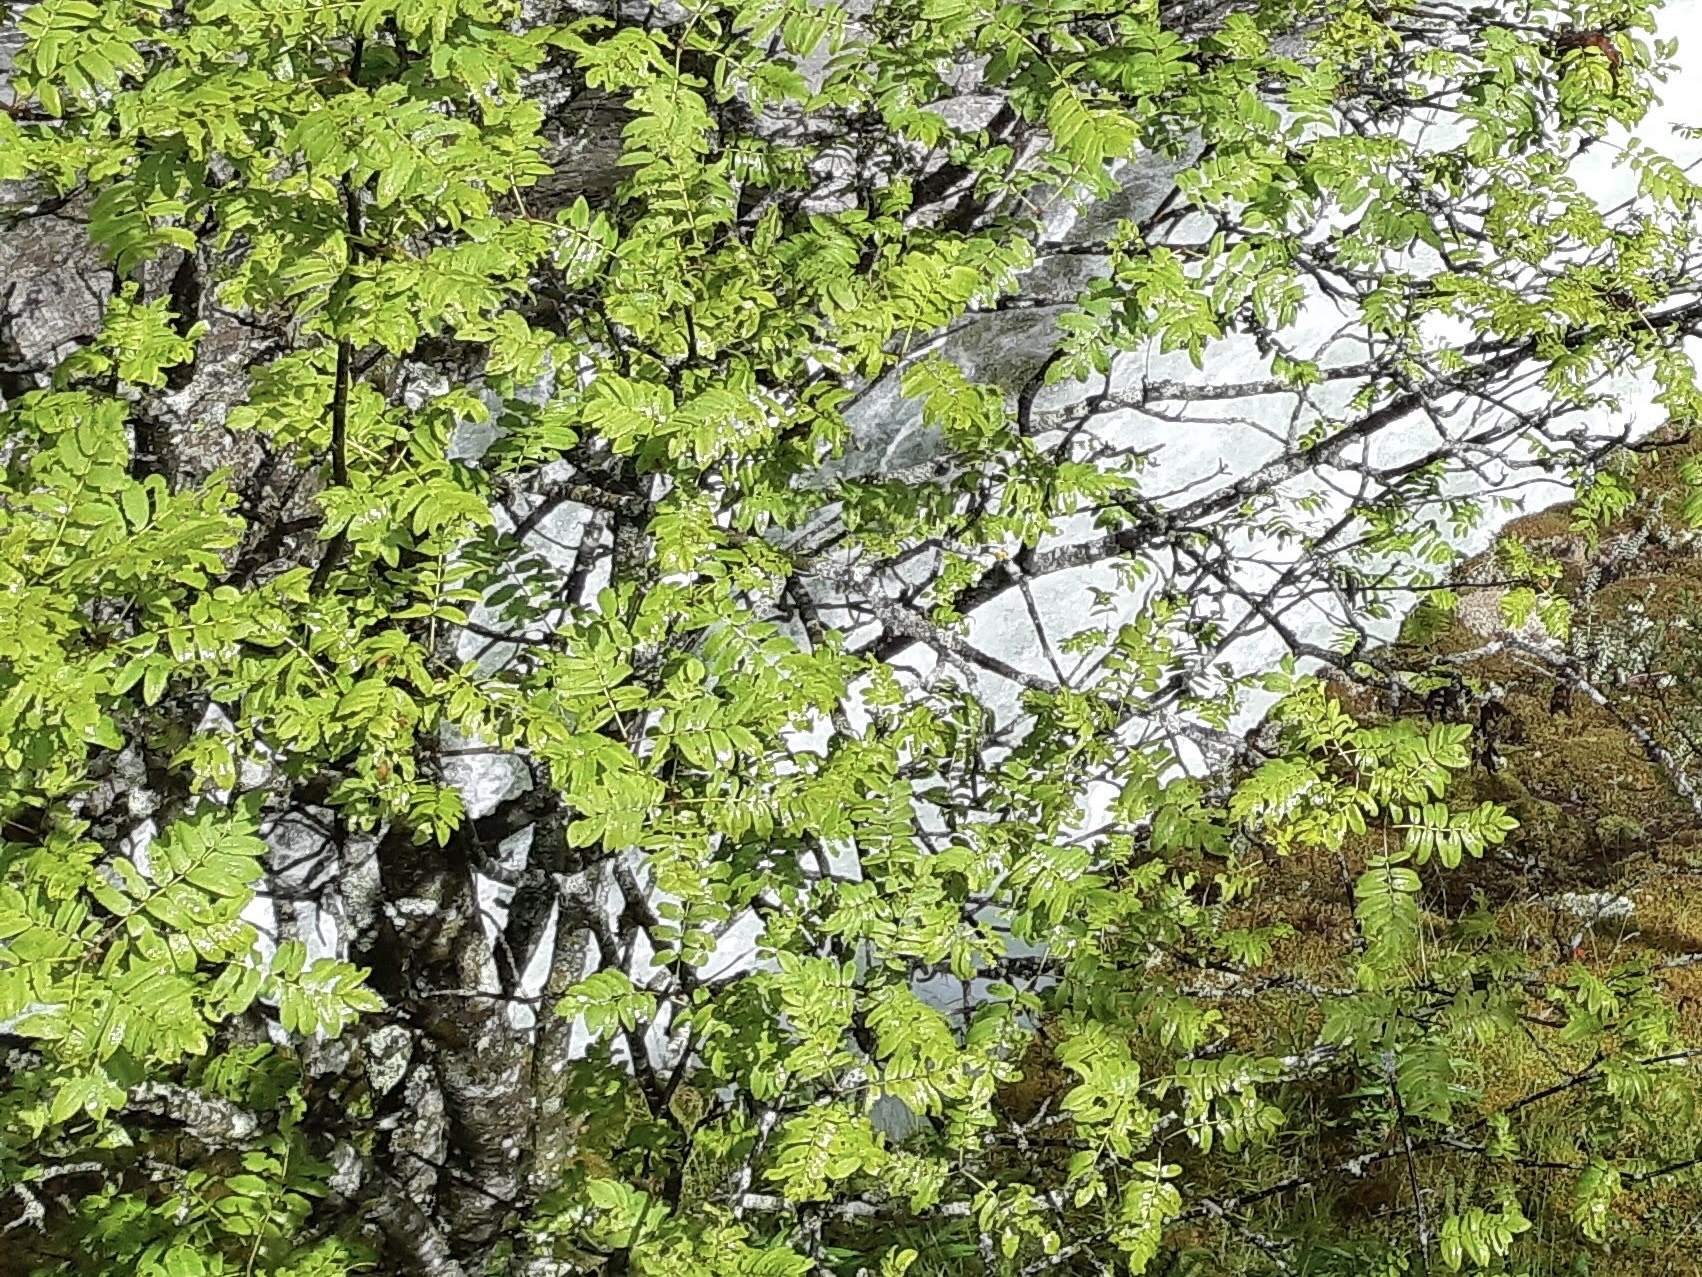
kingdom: Plantae
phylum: Tracheophyta
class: Magnoliopsida
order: Rosales
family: Rosaceae
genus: Sorbus
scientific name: Sorbus aucuparia
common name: Rowan
